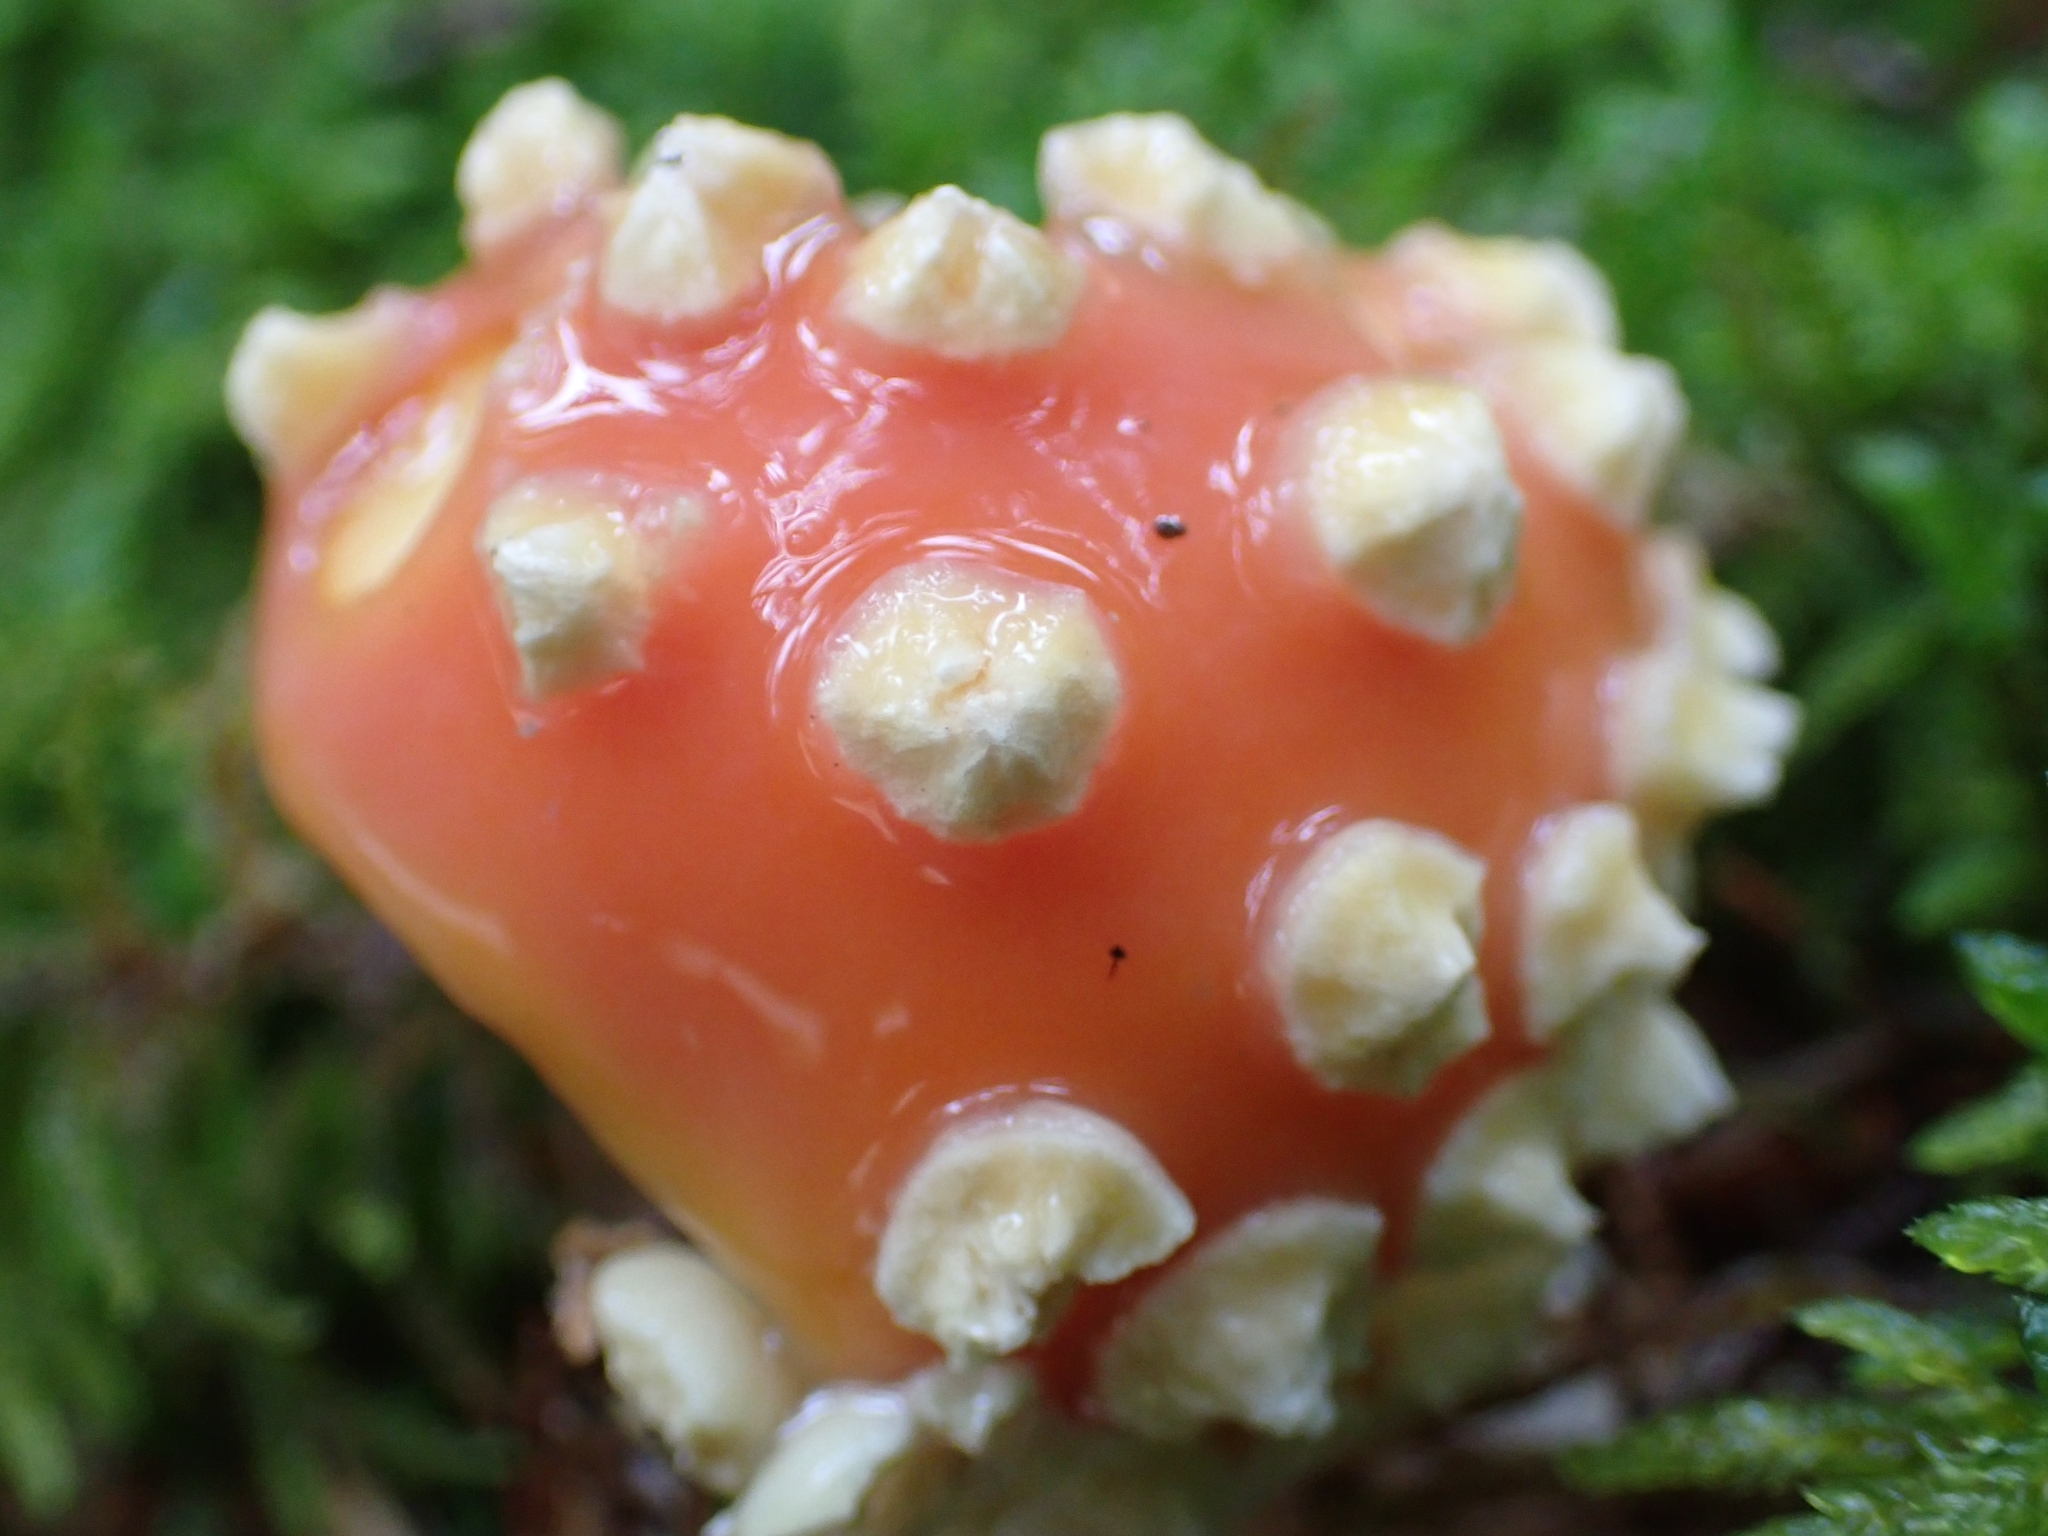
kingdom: Fungi
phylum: Basidiomycota
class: Agaricomycetes
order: Agaricales
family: Amanitaceae
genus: Amanita
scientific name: Amanita muscaria
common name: Fly agaric
